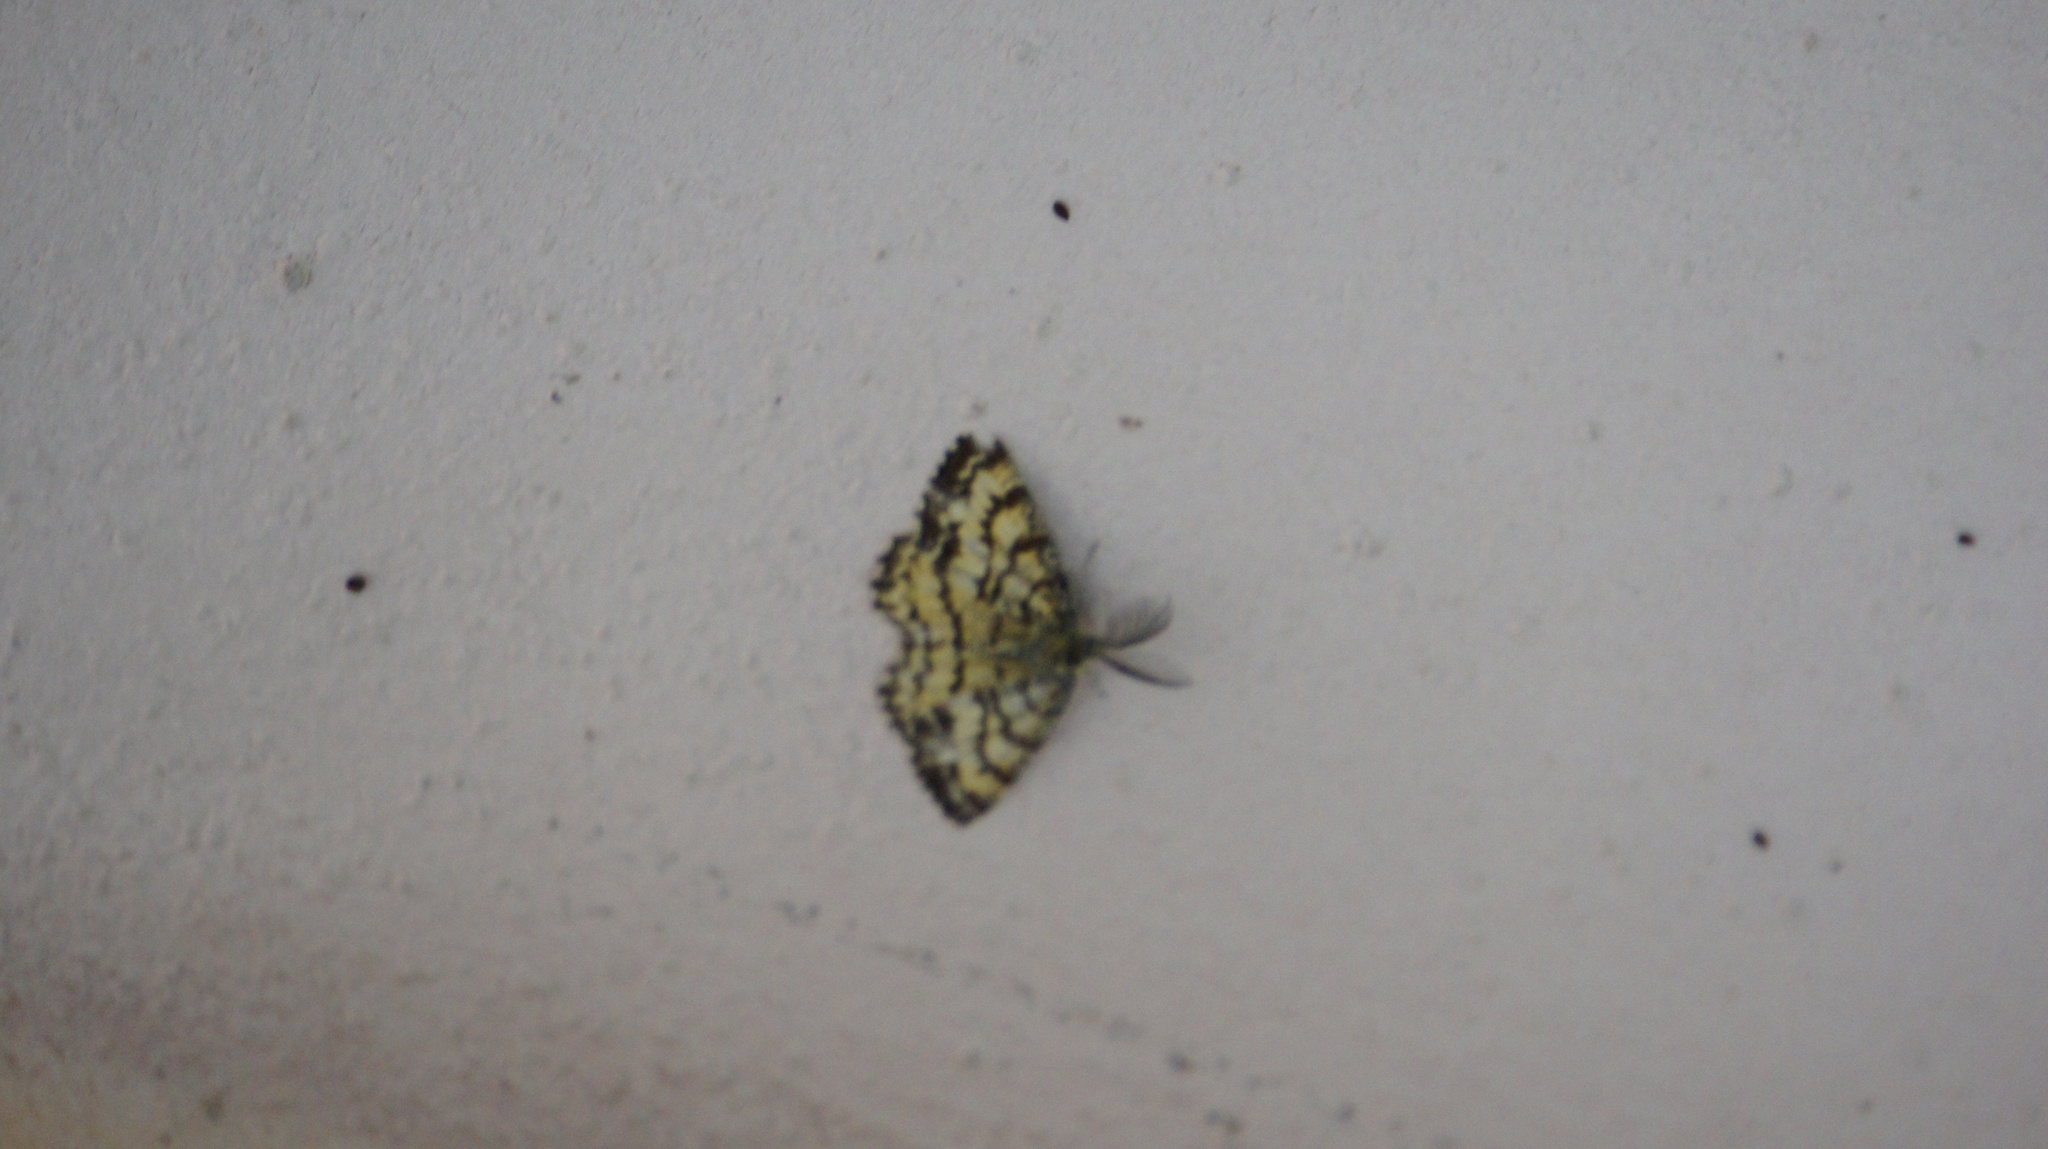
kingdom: Animalia
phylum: Arthropoda
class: Insecta
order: Lepidoptera
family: Geometridae
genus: Ematurga
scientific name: Ematurga atomaria
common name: Common heath
